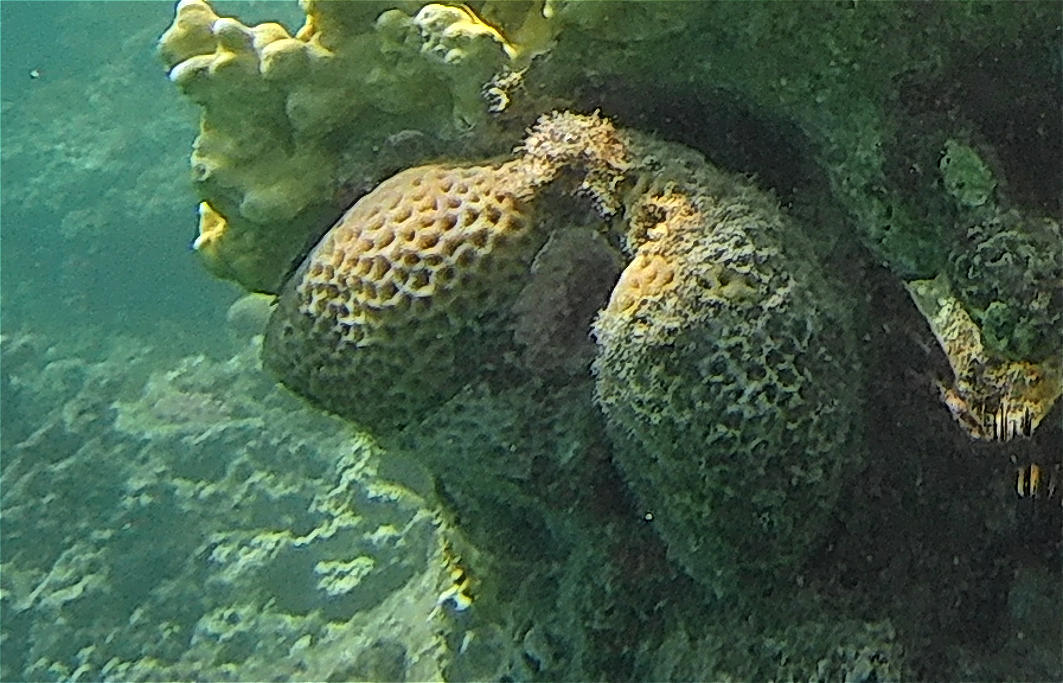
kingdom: Animalia
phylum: Cnidaria
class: Anthozoa
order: Scleractinia
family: Merulinidae
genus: Goniastrea
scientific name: Goniastrea pectinata
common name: Lesser star coral
